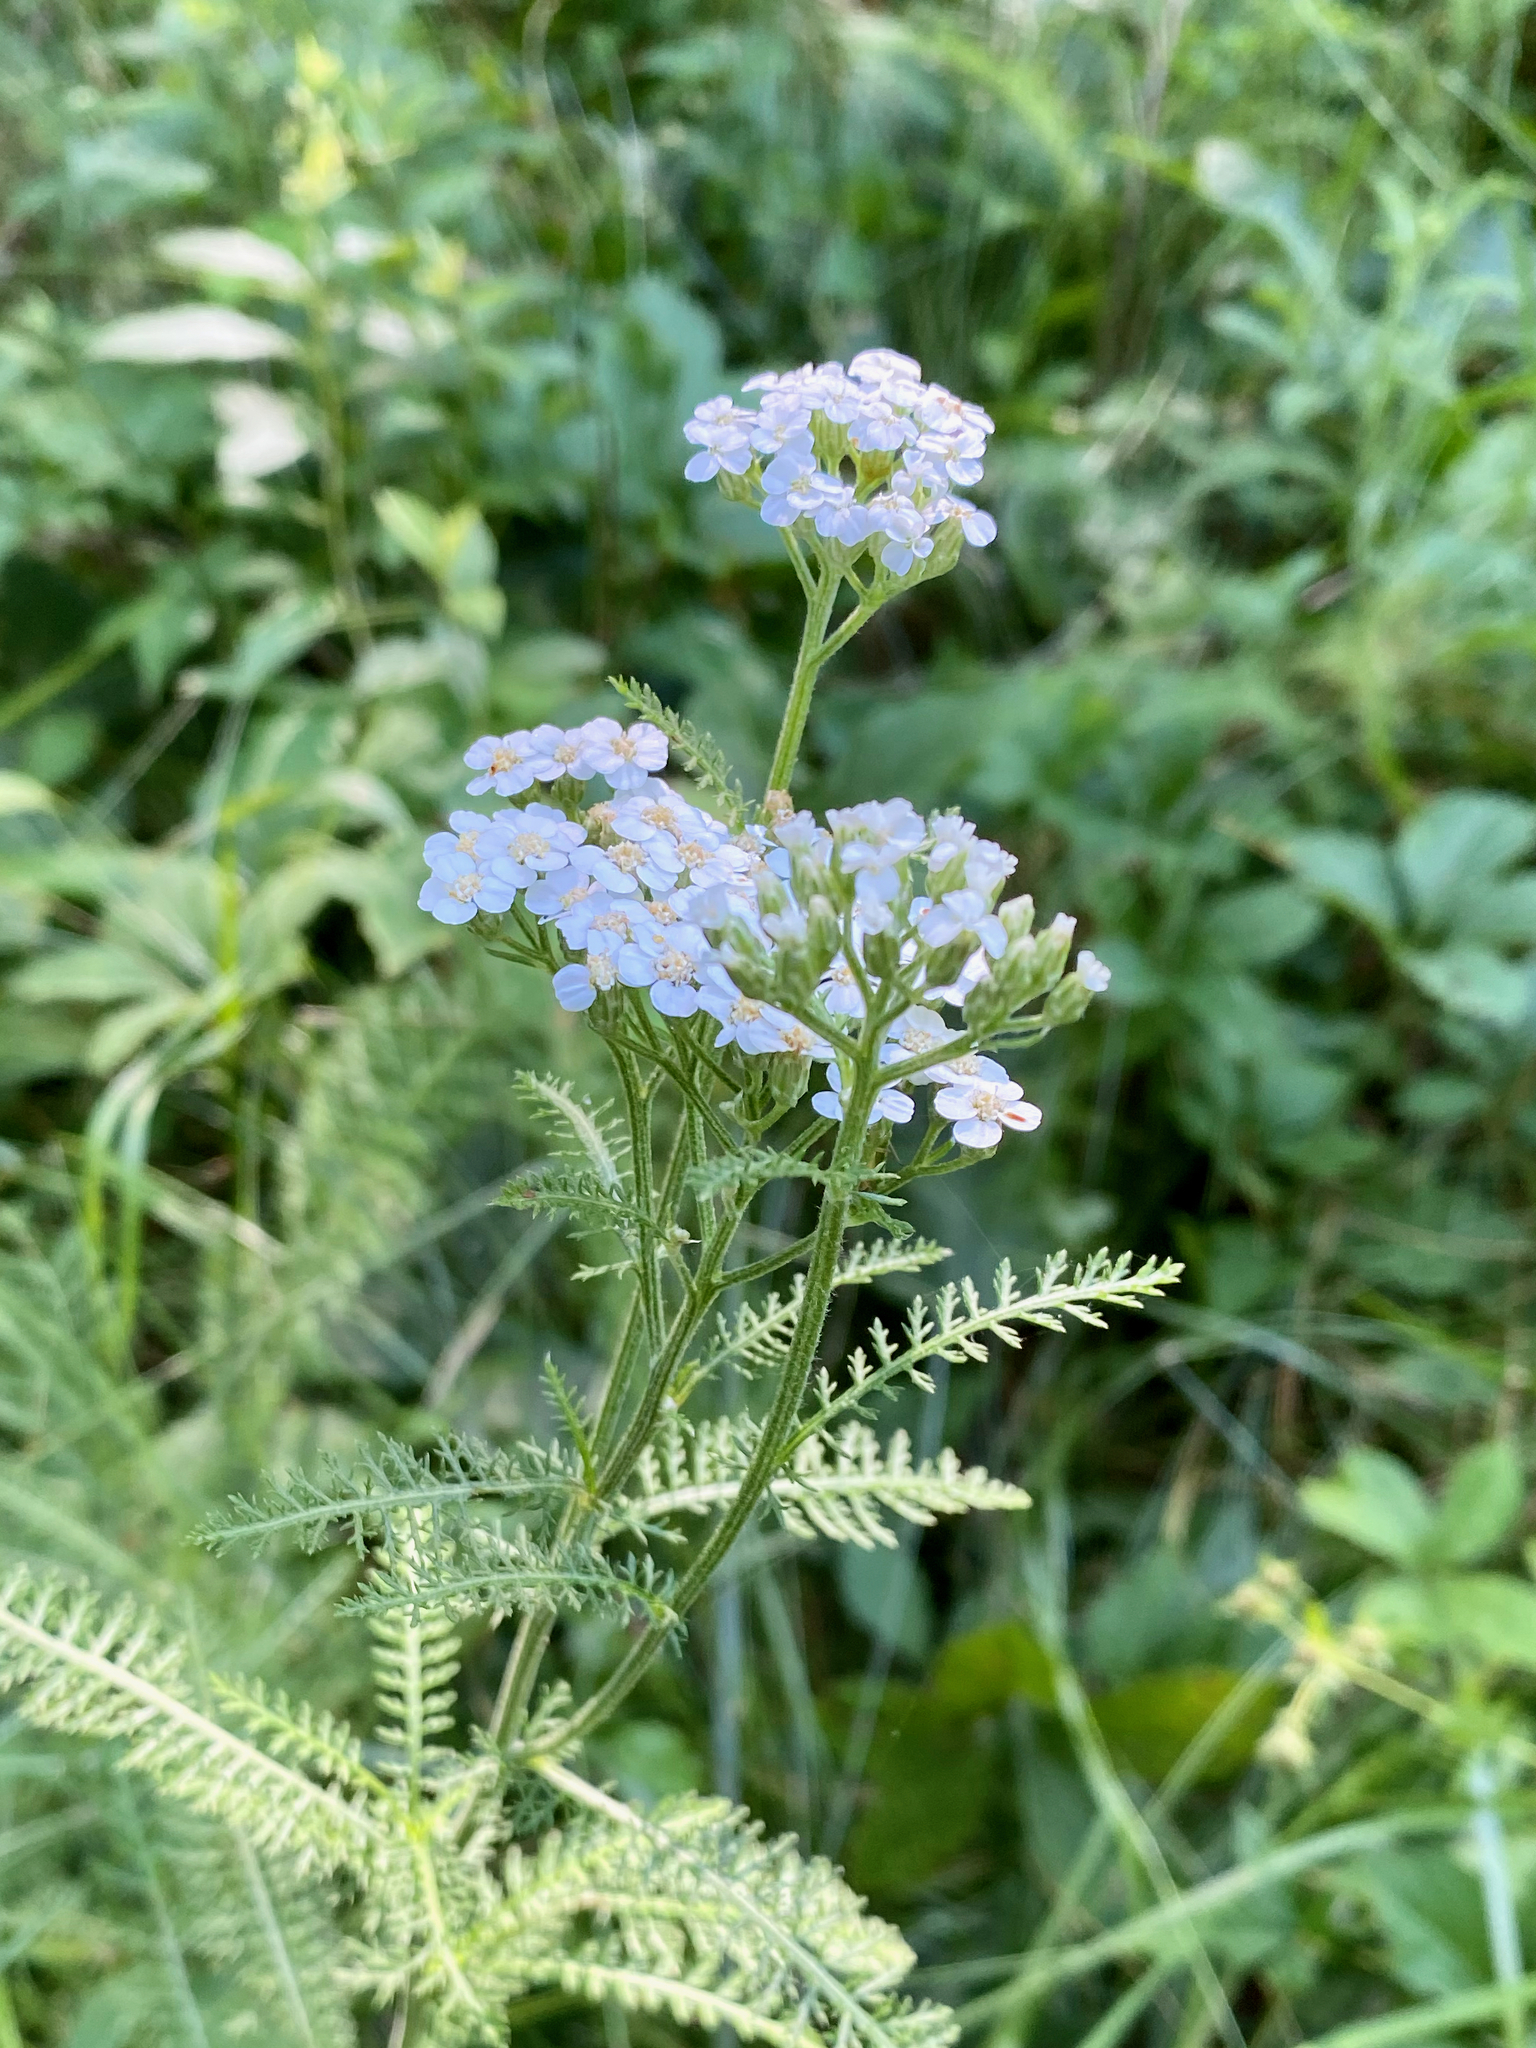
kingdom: Plantae
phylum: Tracheophyta
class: Magnoliopsida
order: Asterales
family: Asteraceae
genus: Achillea
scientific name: Achillea millefolium
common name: Yarrow
